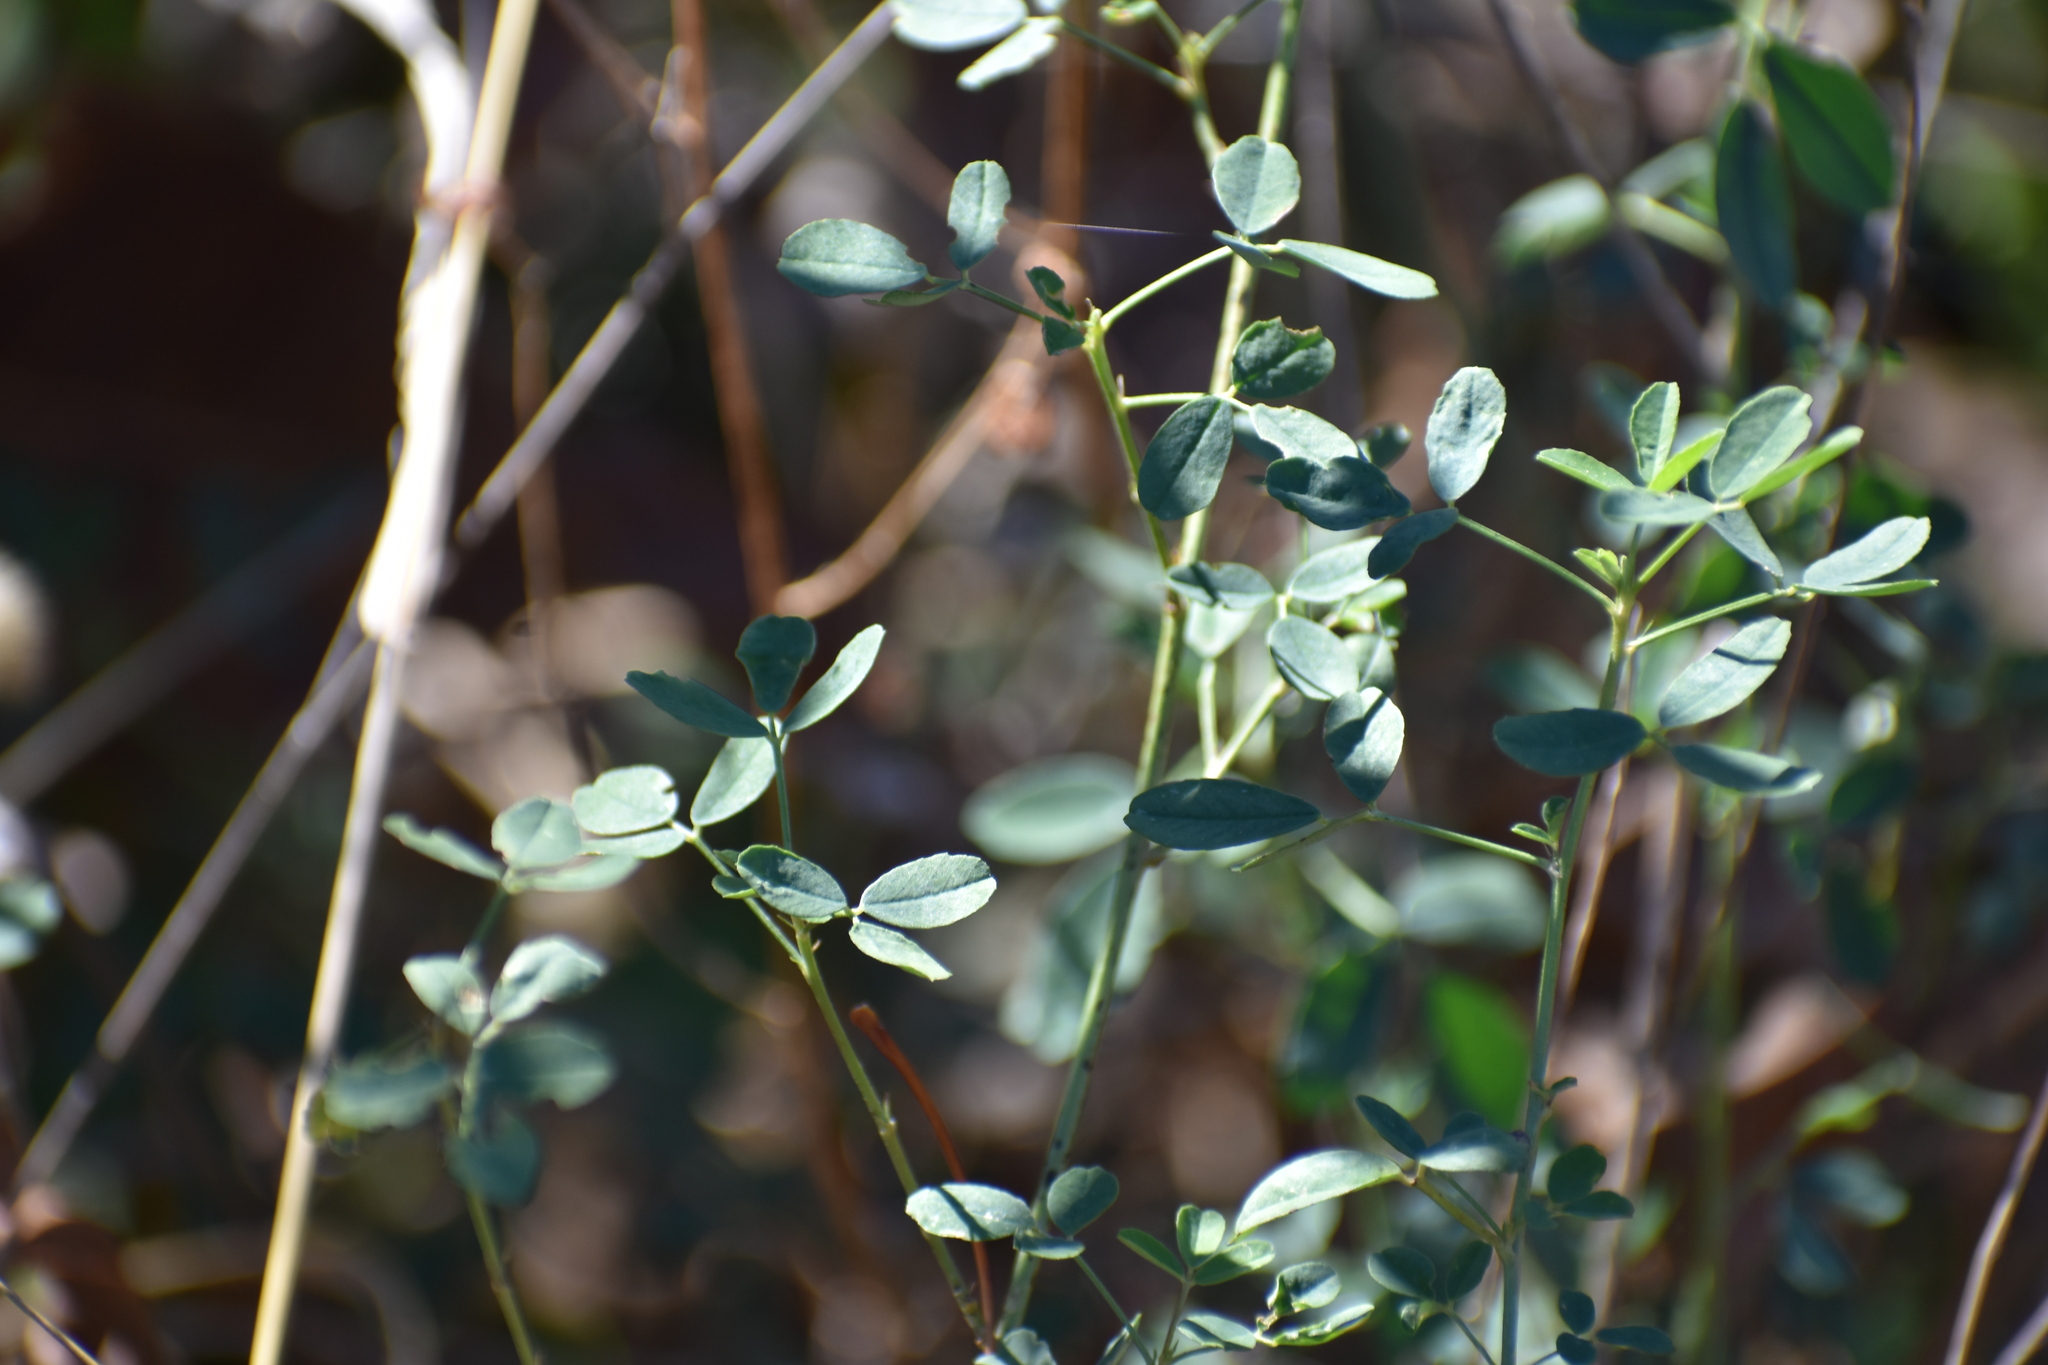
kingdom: Plantae
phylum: Tracheophyta
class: Magnoliopsida
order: Fabales
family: Fabaceae
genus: Melilotus
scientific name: Melilotus
